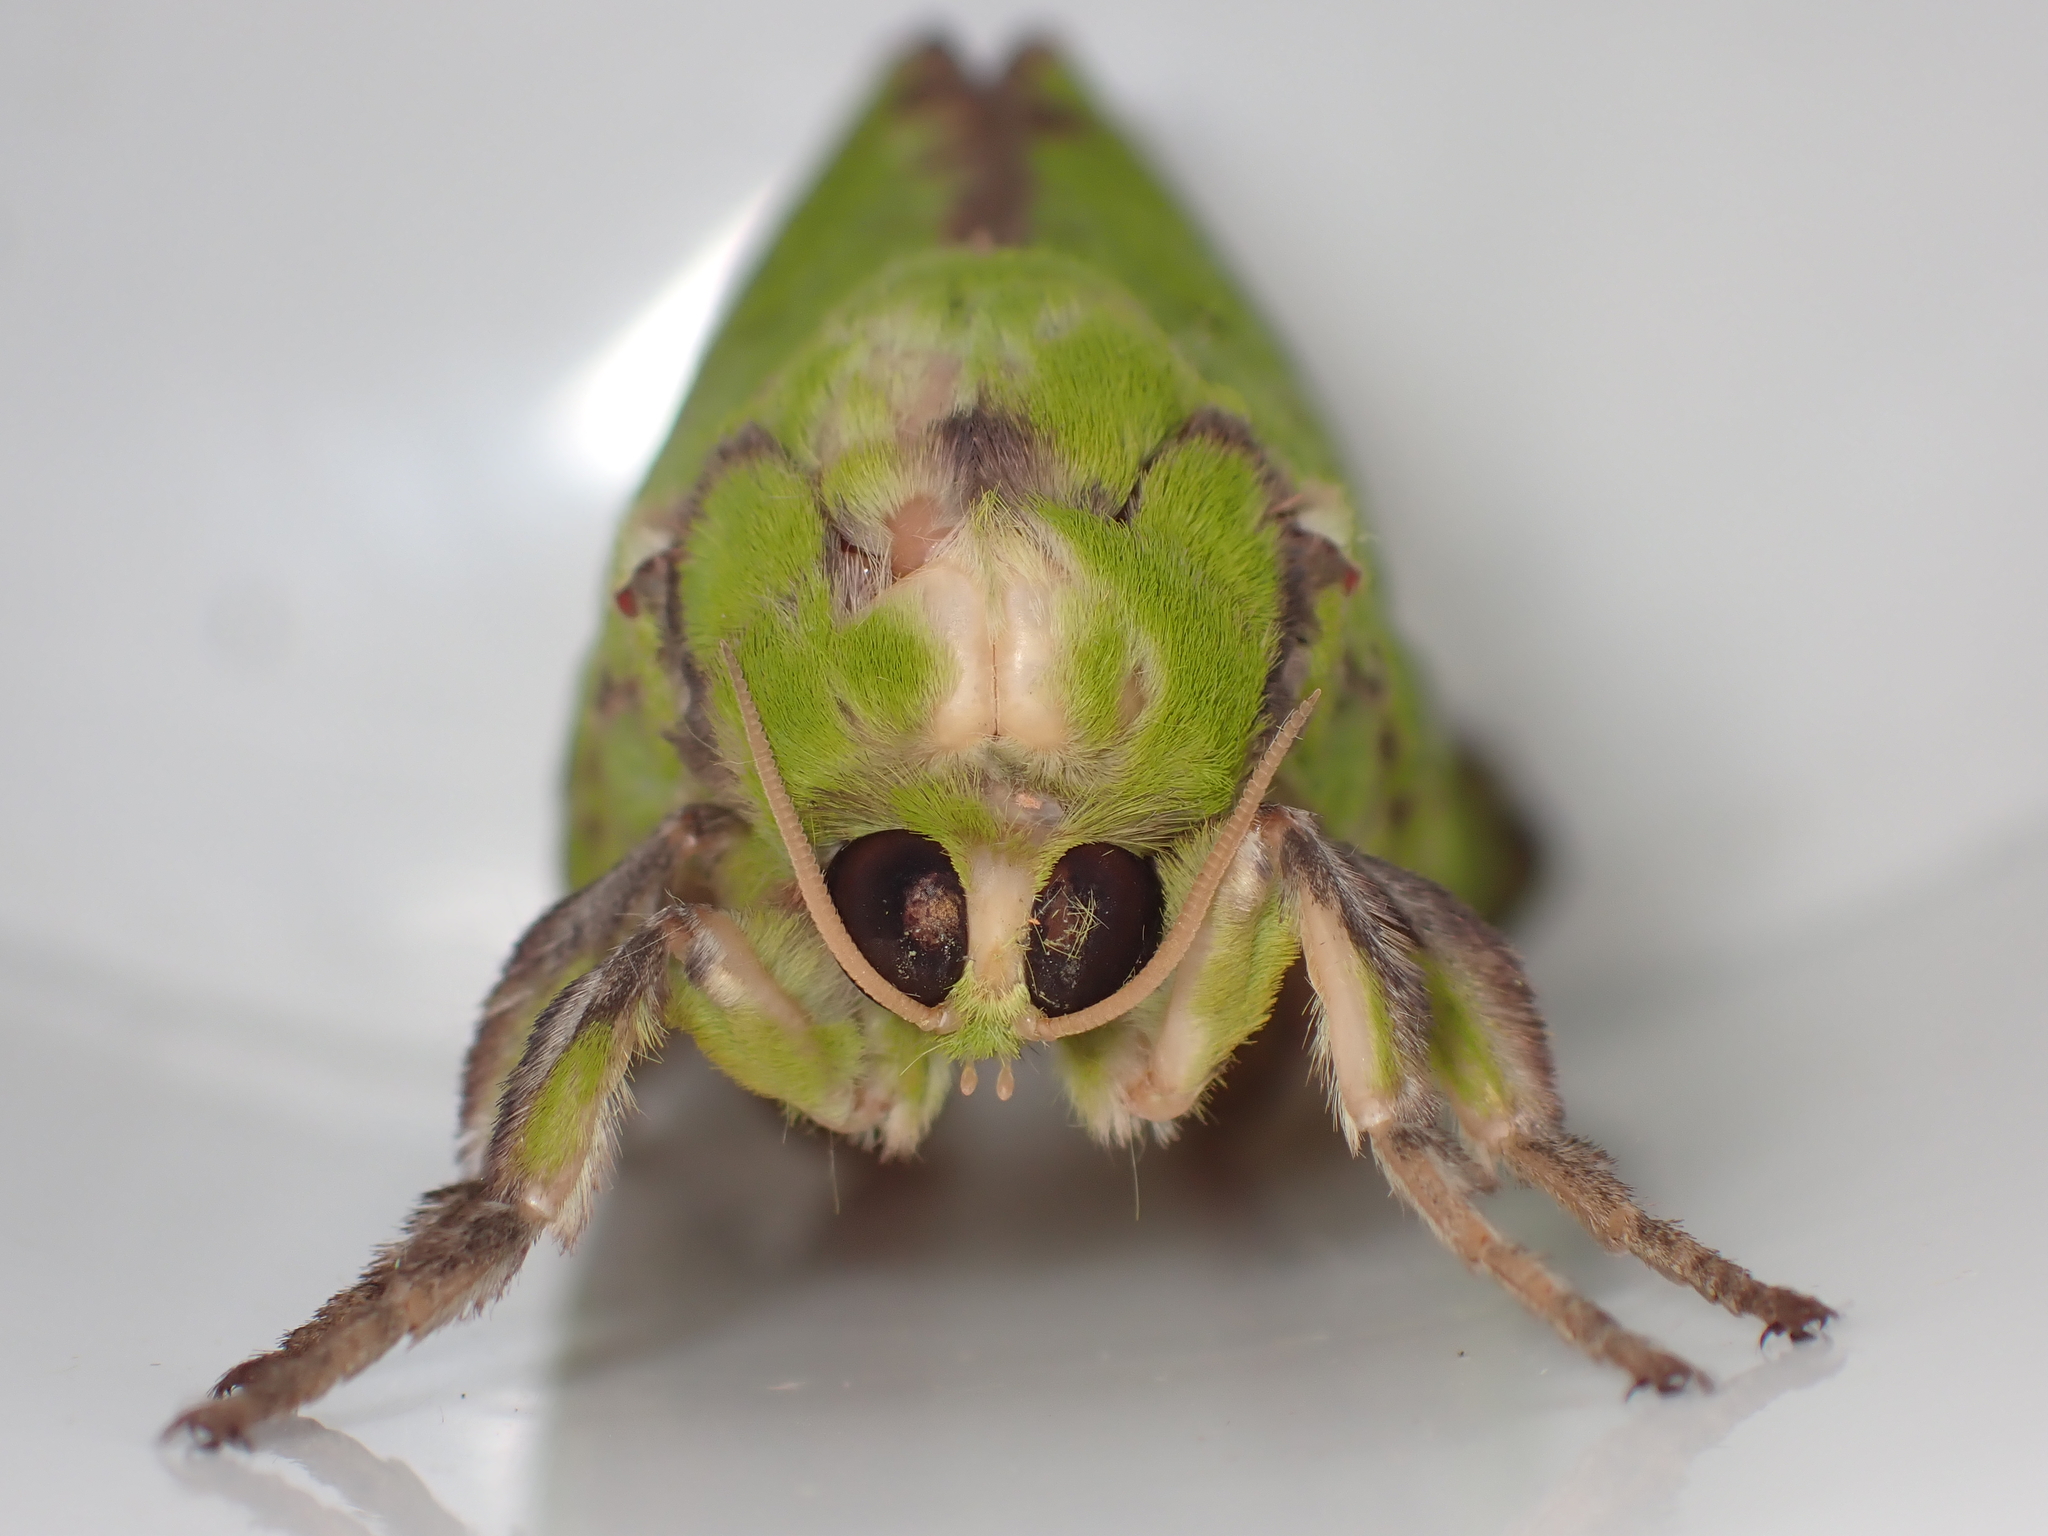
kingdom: Animalia
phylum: Arthropoda
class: Insecta
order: Lepidoptera
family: Hepialidae
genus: Aenetus
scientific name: Aenetus virescens
